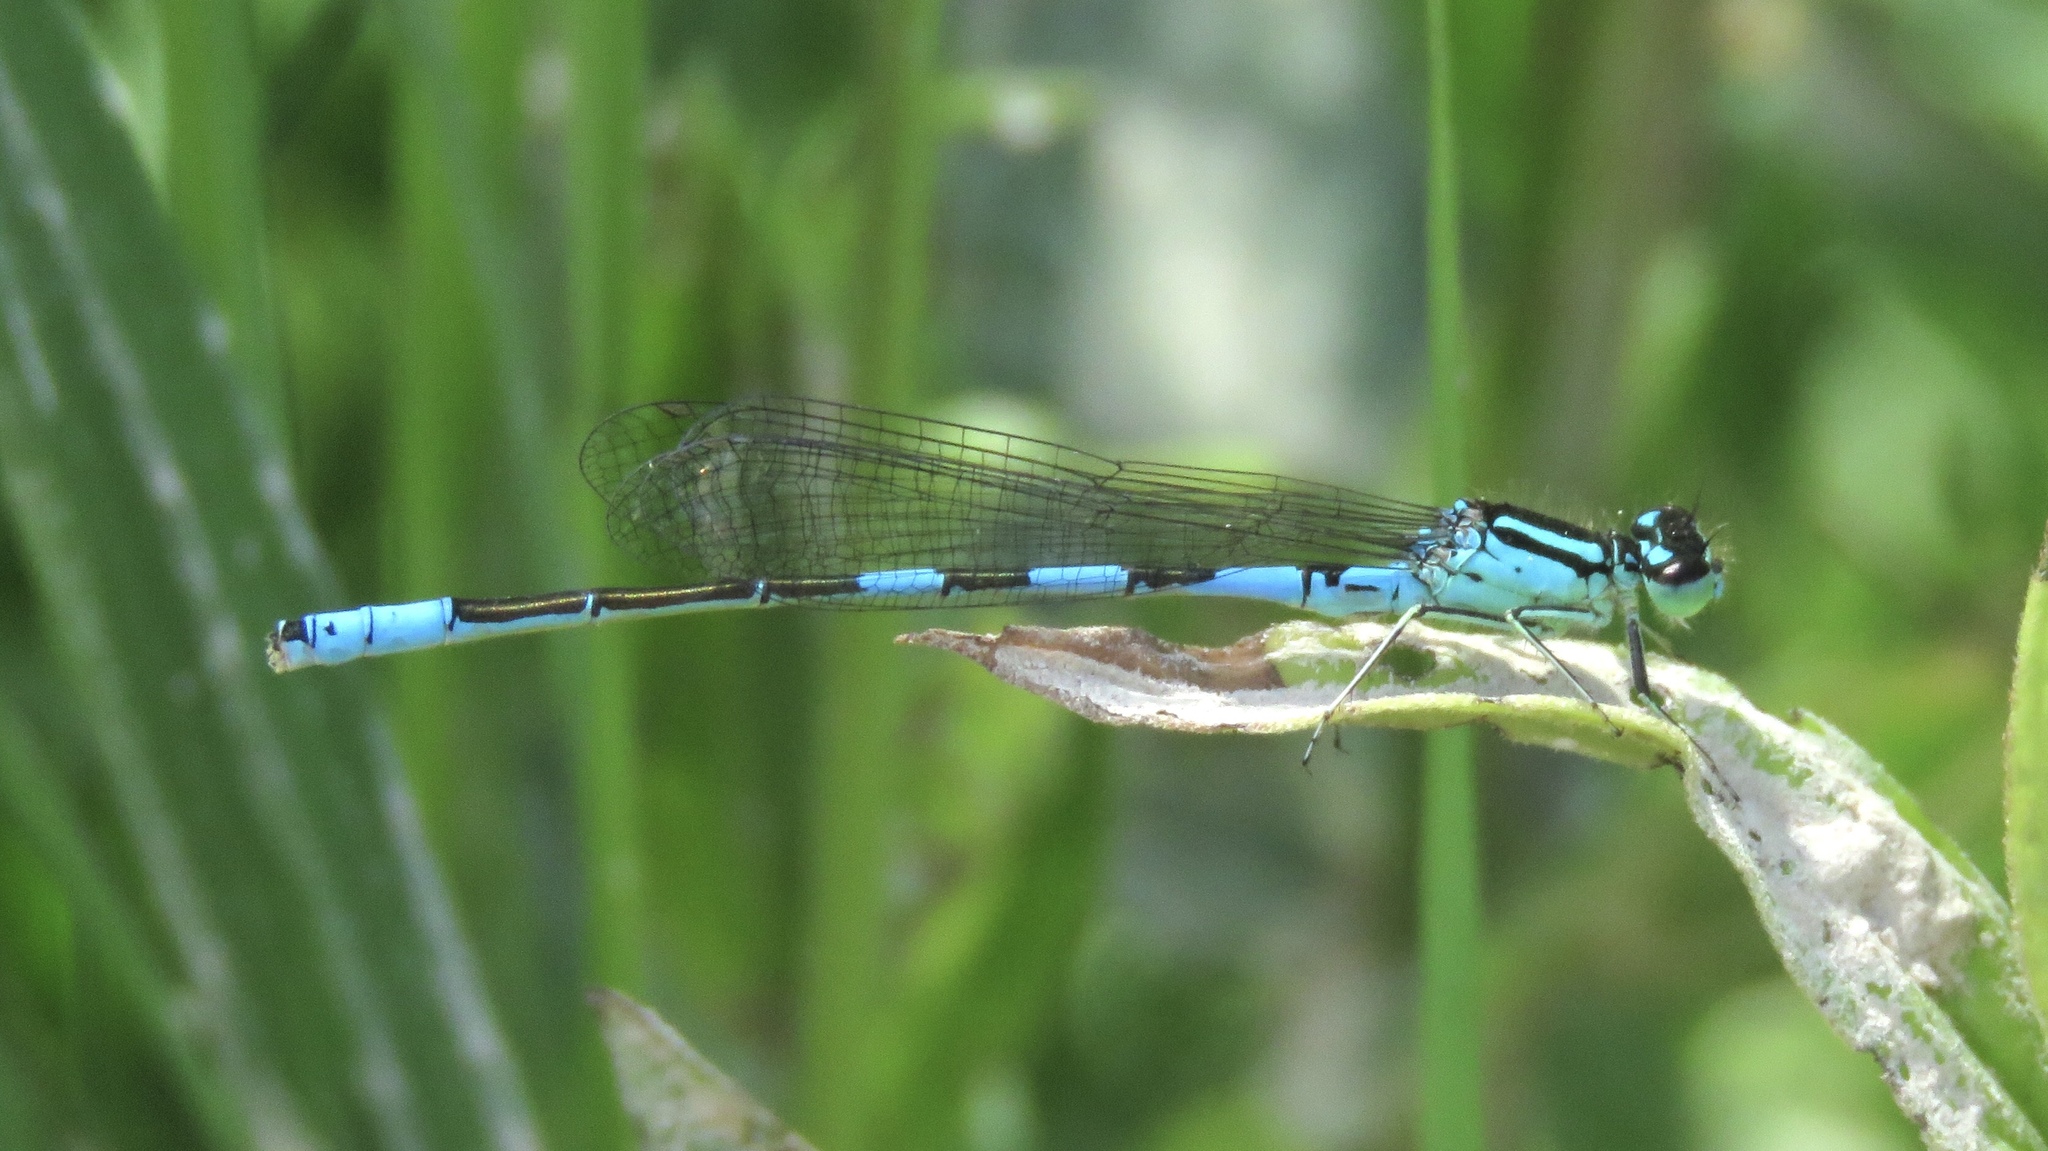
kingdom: Animalia
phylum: Arthropoda
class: Insecta
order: Odonata
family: Coenagrionidae
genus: Coenagrion
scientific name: Coenagrion resolutum
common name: Taiga bluet
